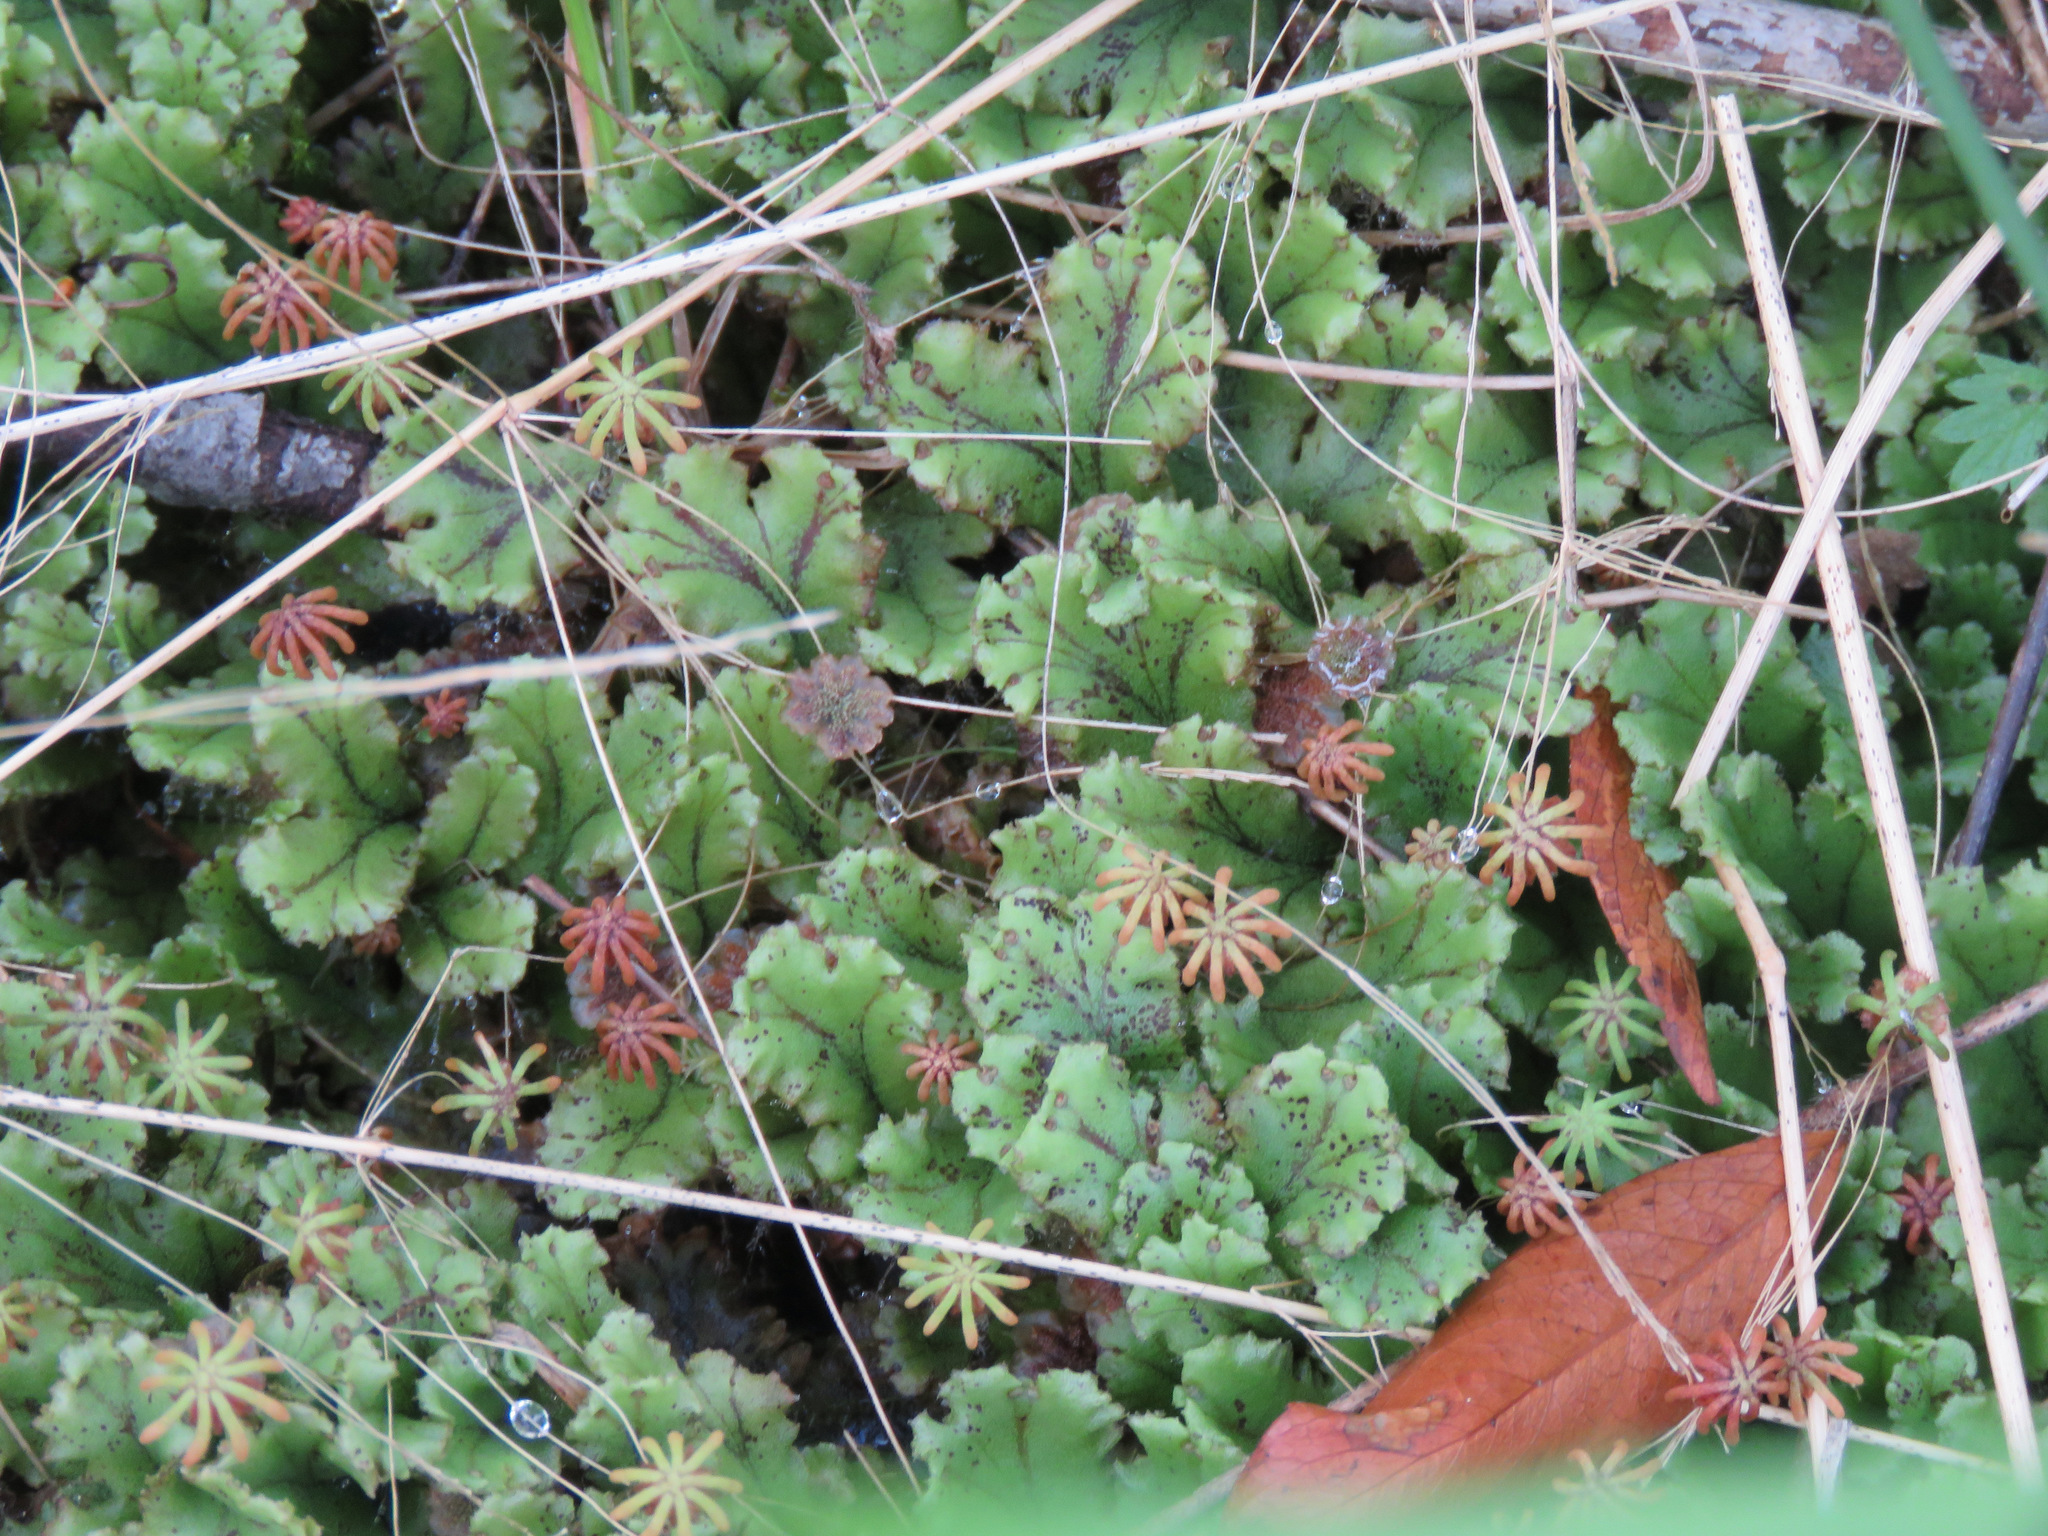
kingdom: Plantae
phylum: Marchantiophyta
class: Marchantiopsida
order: Marchantiales
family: Marchantiaceae
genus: Marchantia
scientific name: Marchantia polymorpha
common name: Common liverwort
